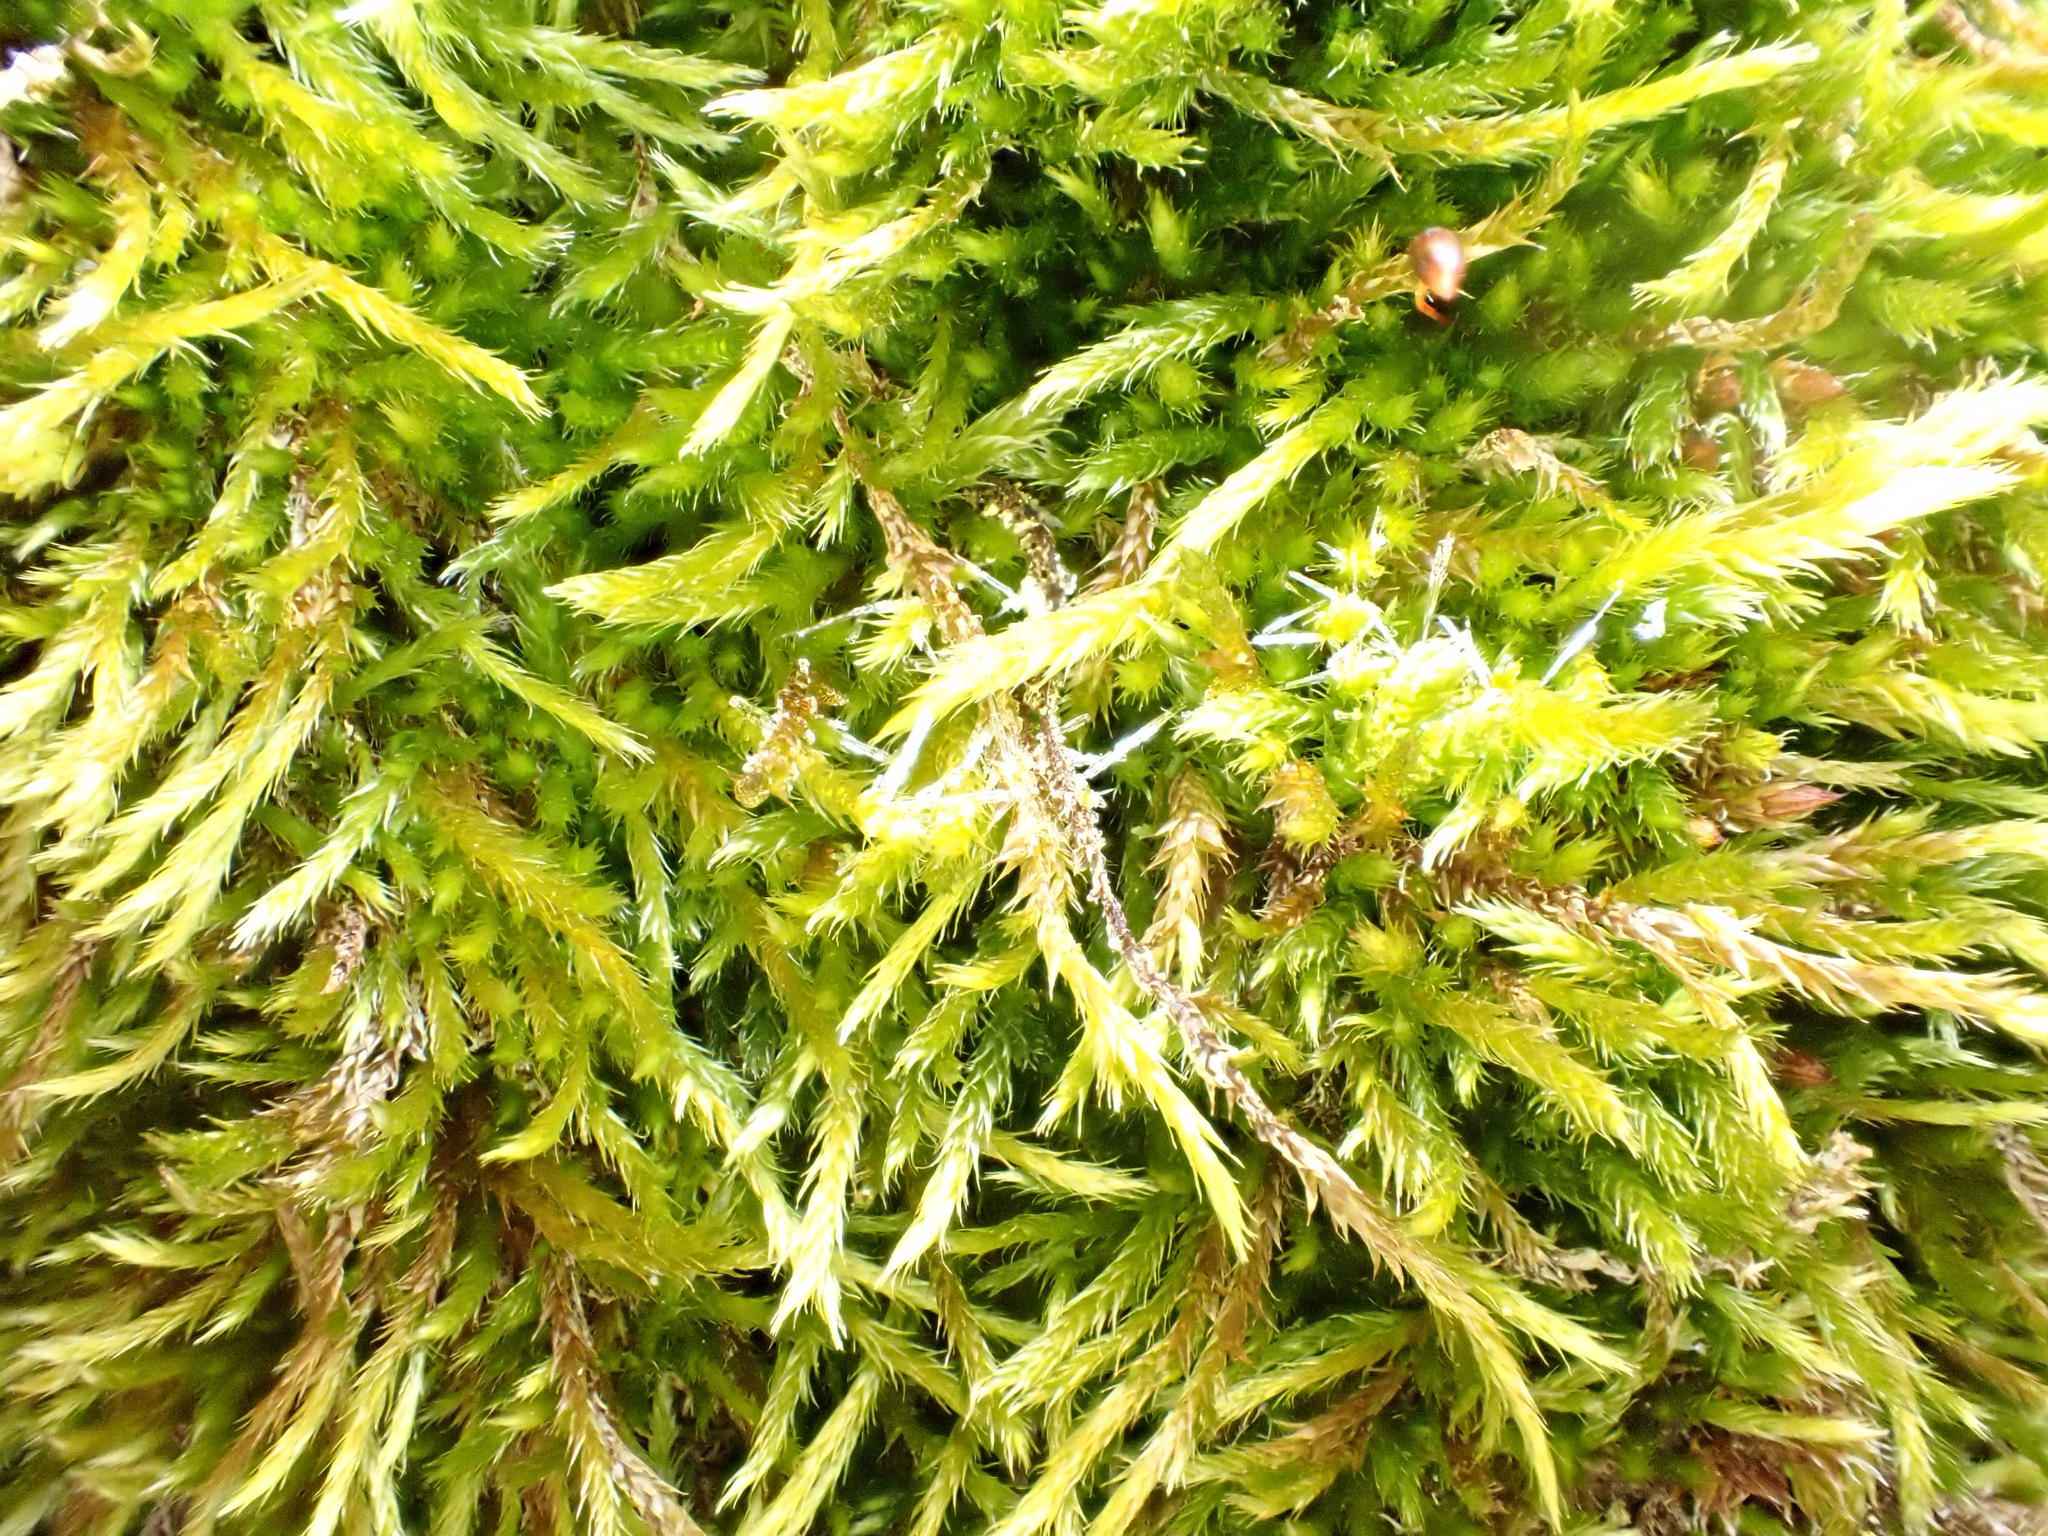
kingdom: Plantae
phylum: Bryophyta
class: Bryopsida
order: Hypnales
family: Brachytheciaceae
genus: Homalothecium
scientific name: Homalothecium sericeum
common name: Silky wall feather-moss
